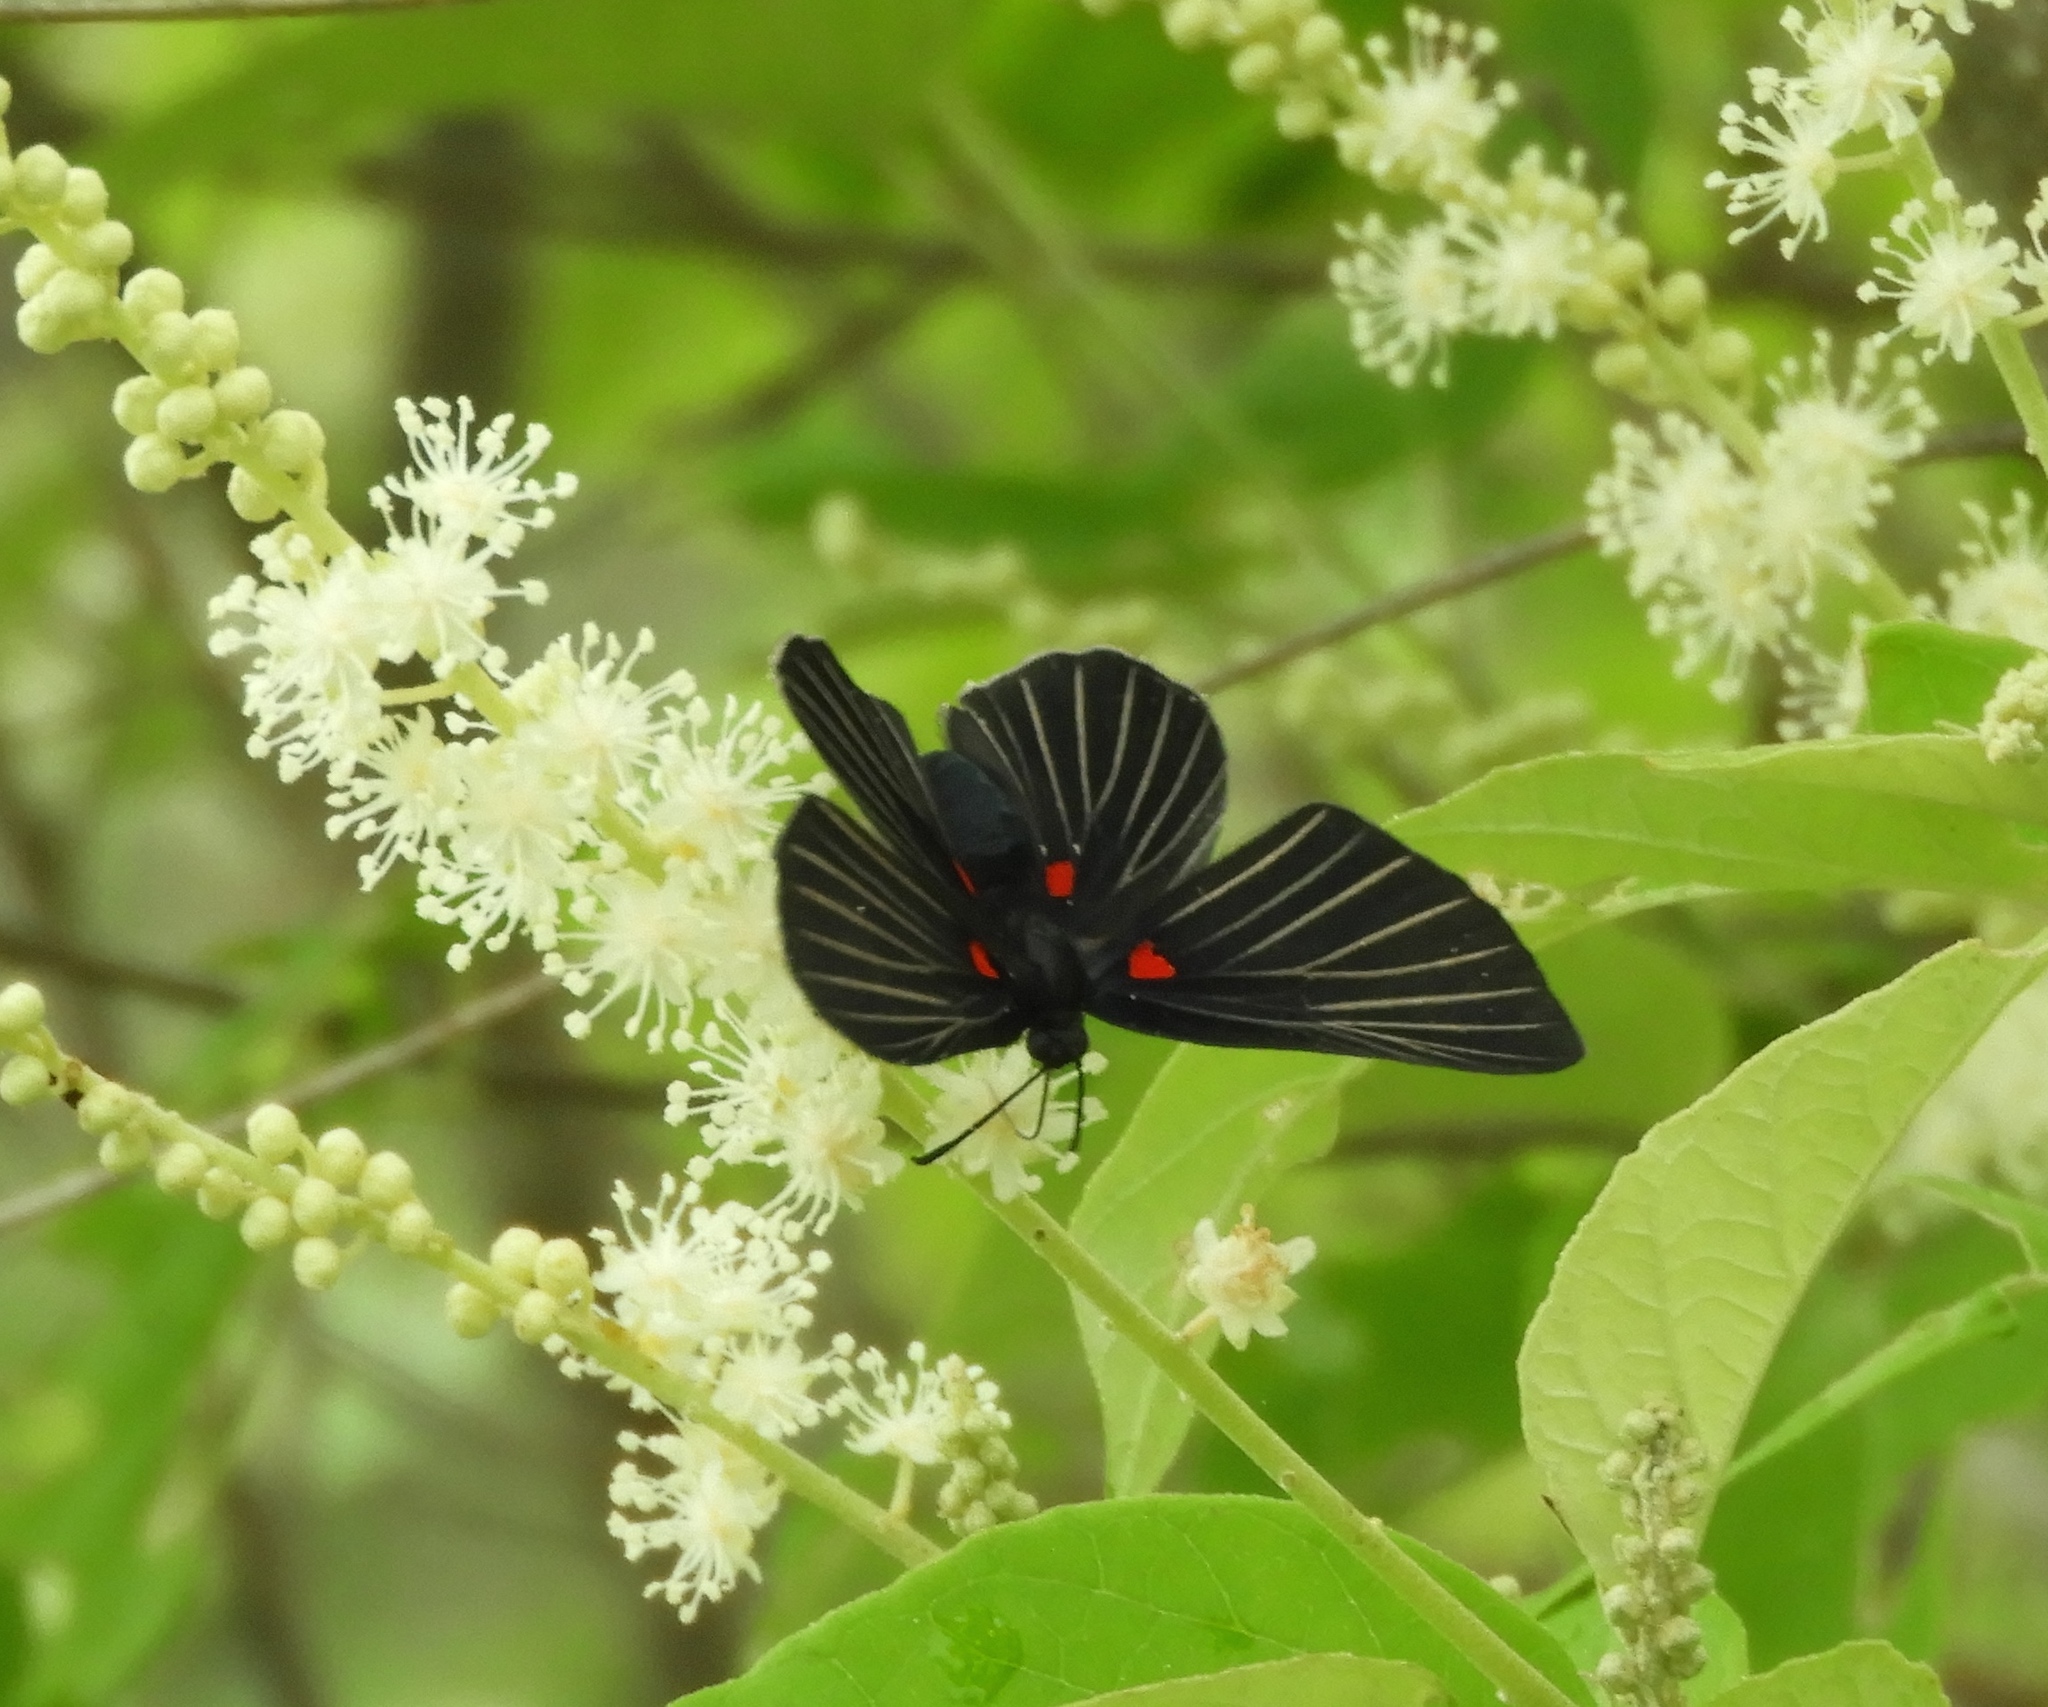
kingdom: Animalia
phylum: Arthropoda
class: Insecta
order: Lepidoptera
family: Lycaenidae
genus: Melanis
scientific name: Melanis
